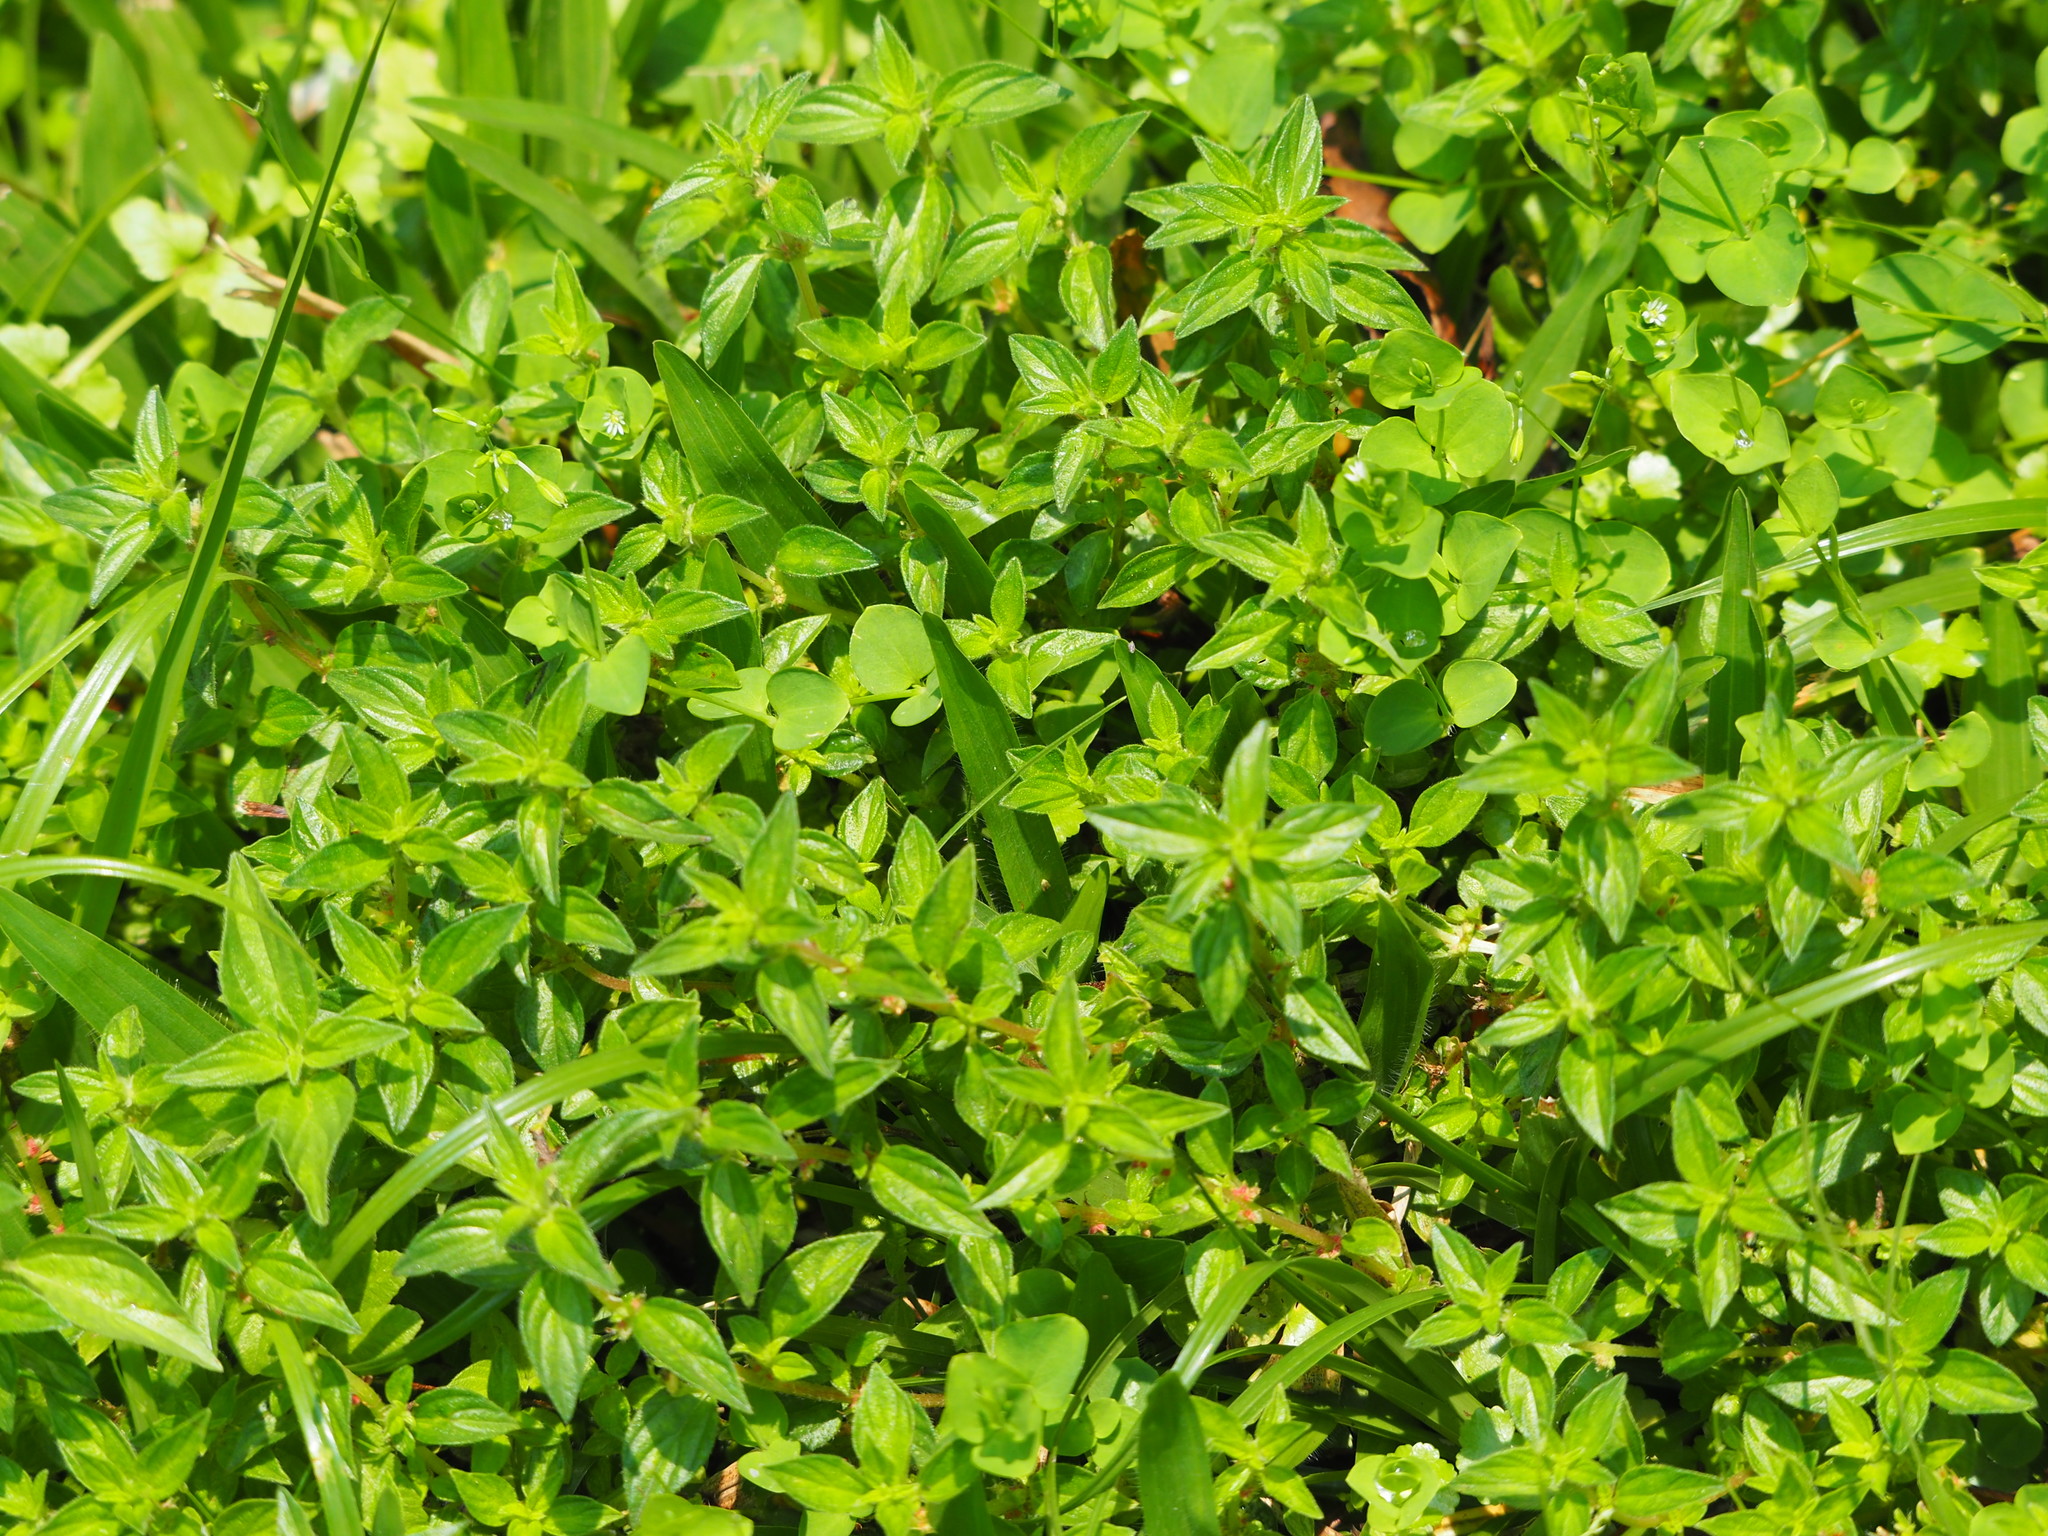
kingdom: Plantae
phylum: Tracheophyta
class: Magnoliopsida
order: Rosales
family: Urticaceae
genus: Pouzolzia
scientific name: Pouzolzia zeylanica
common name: Graceful pouzolzsbush
